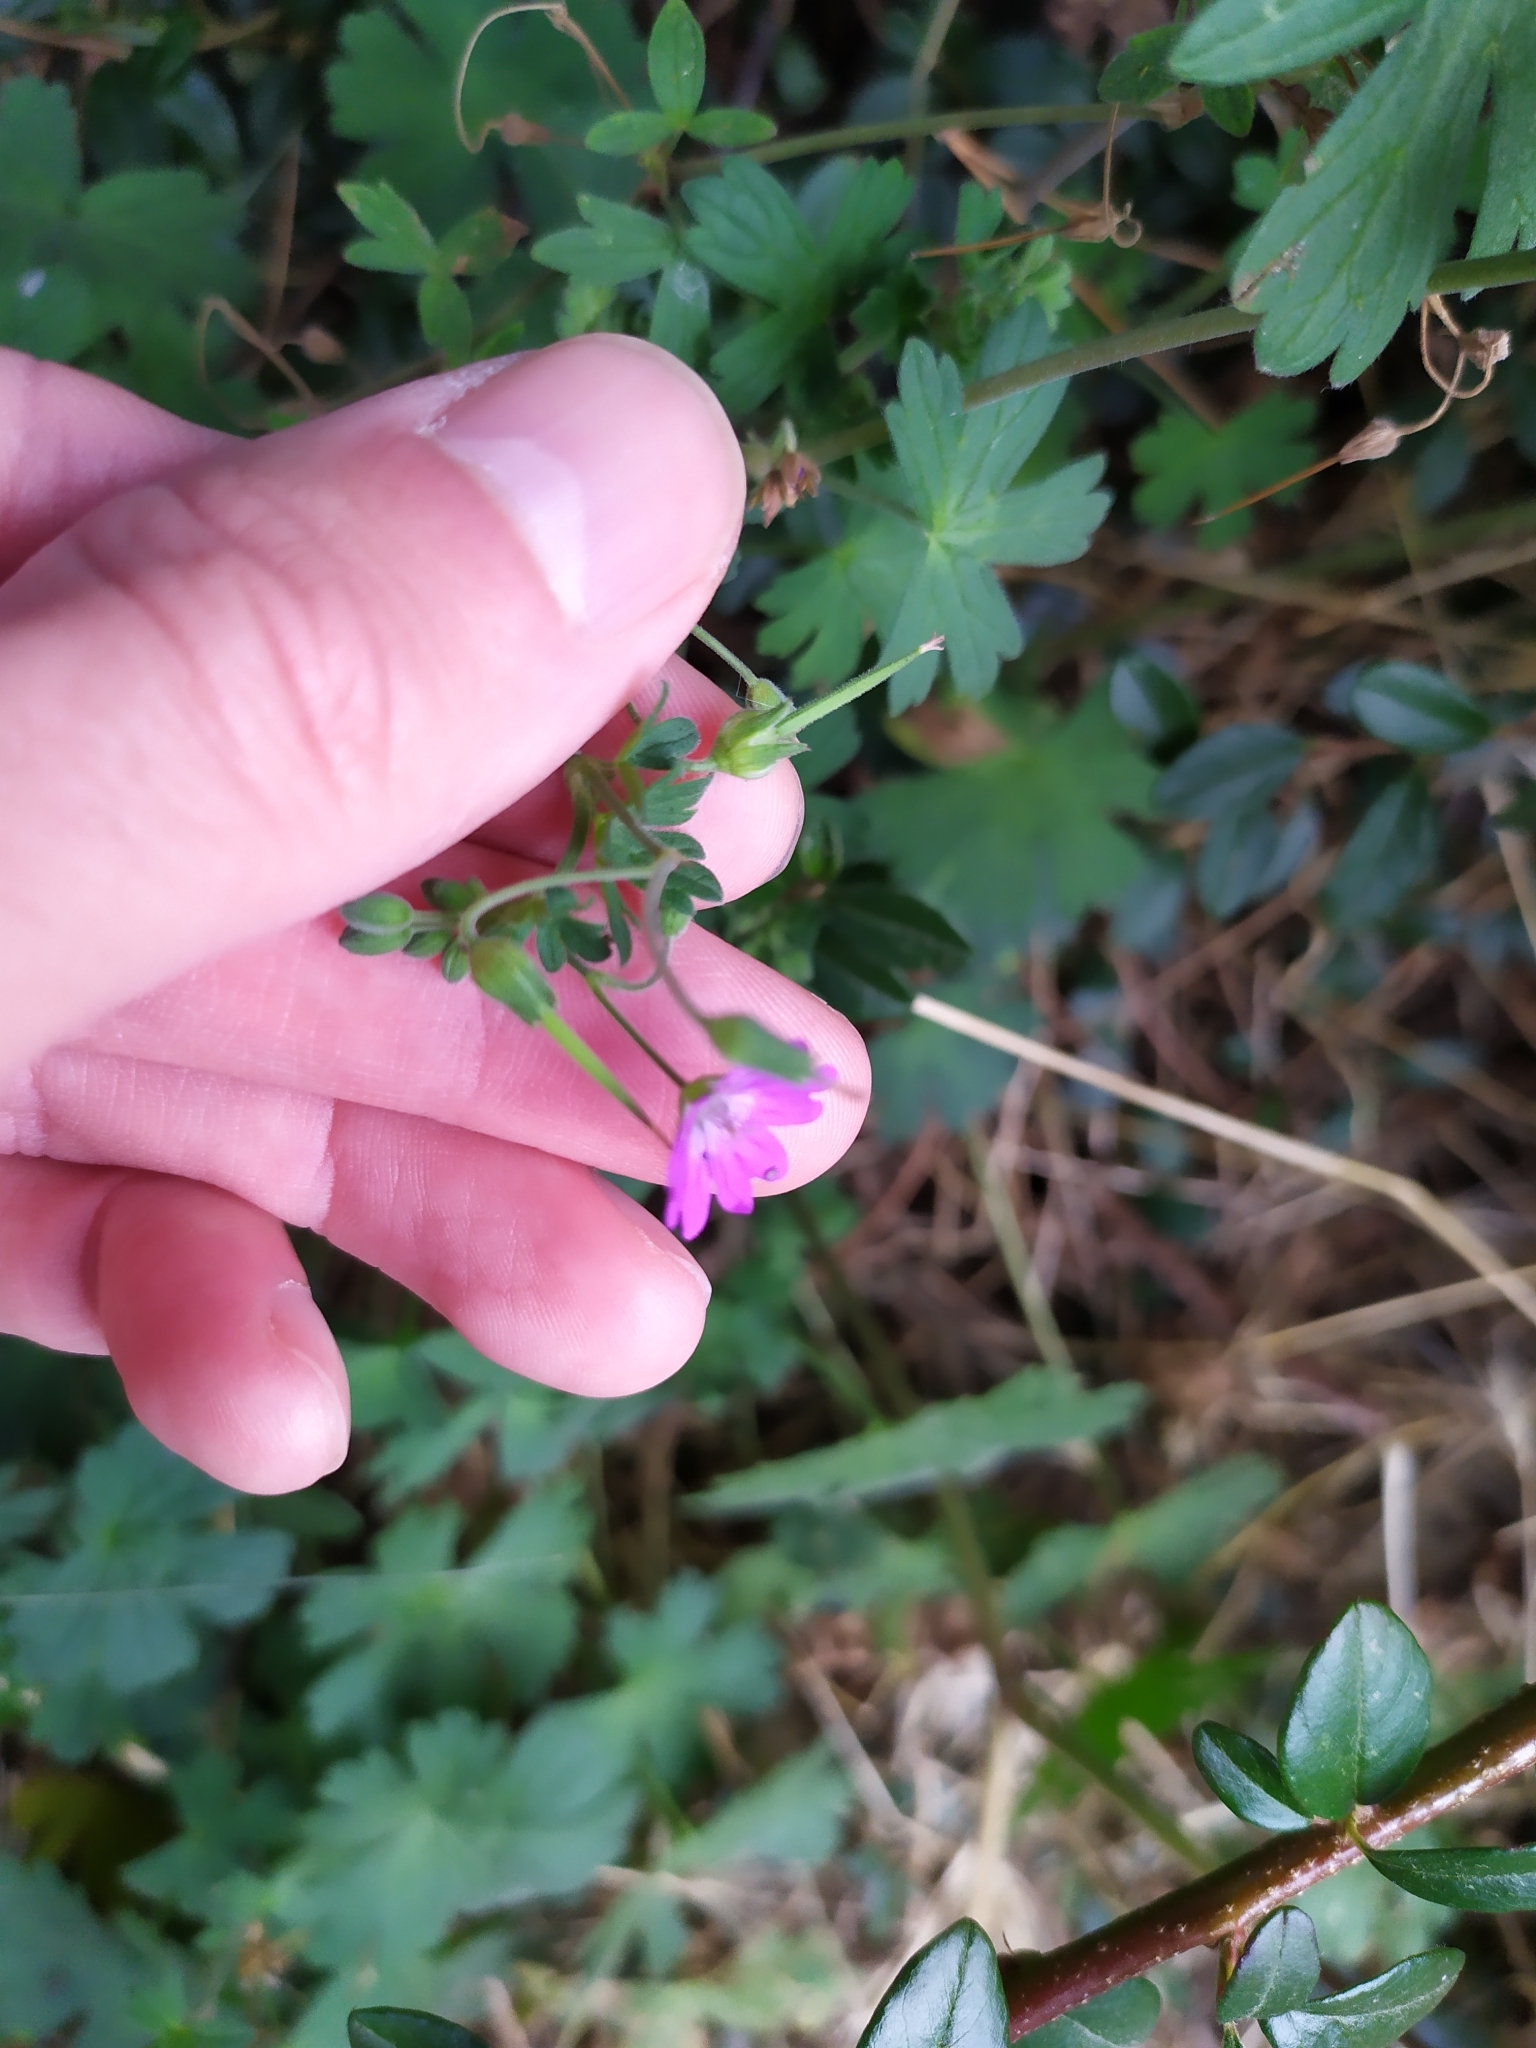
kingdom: Plantae
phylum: Tracheophyta
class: Magnoliopsida
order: Geraniales
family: Geraniaceae
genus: Geranium
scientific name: Geranium pyrenaicum
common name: Hedgerow crane's-bill
